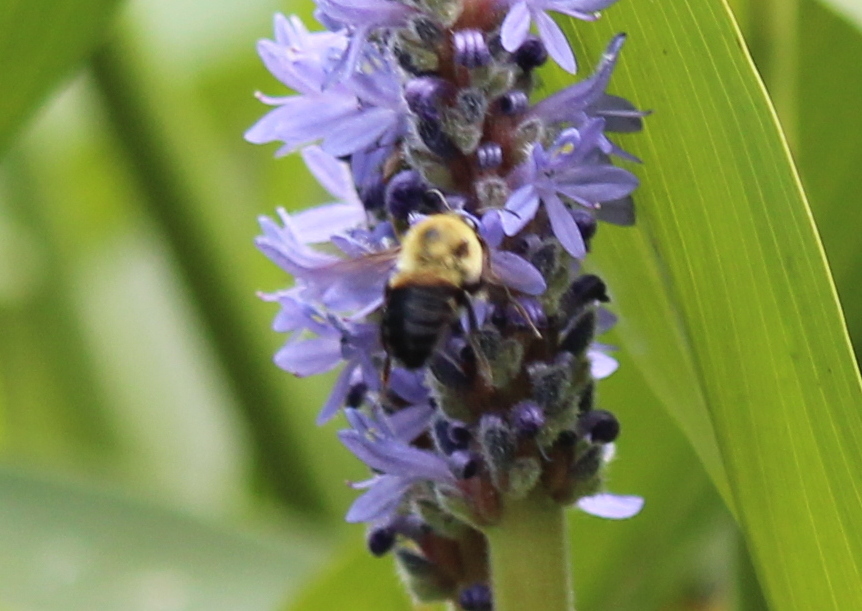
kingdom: Animalia
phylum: Arthropoda
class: Insecta
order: Hymenoptera
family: Apidae
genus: Bombus
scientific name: Bombus griseocollis
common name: Brown-belted bumble bee
